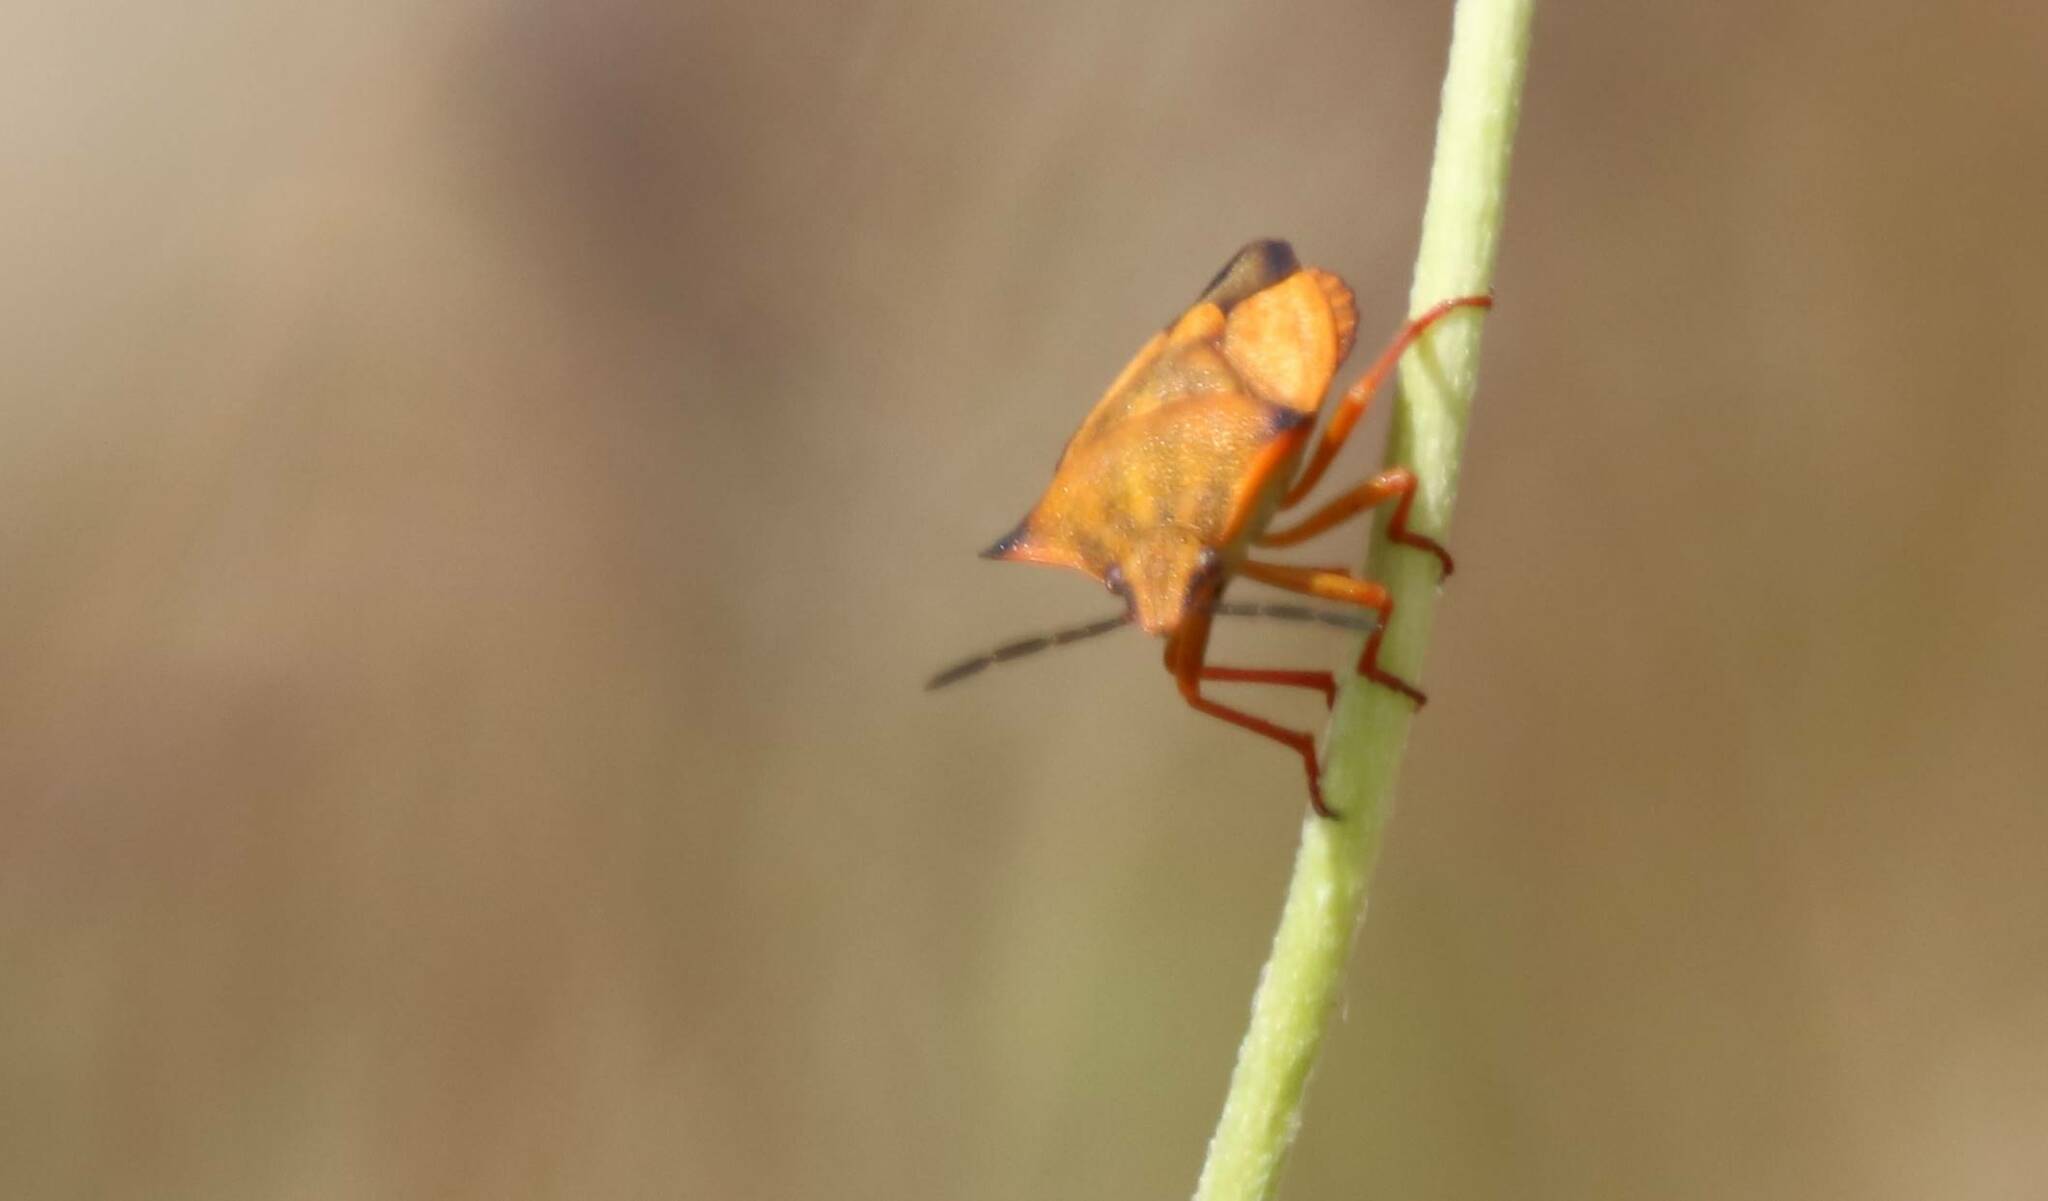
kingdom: Animalia
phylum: Arthropoda
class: Insecta
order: Hemiptera
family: Pentatomidae
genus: Carpocoris
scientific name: Carpocoris mediterraneus
